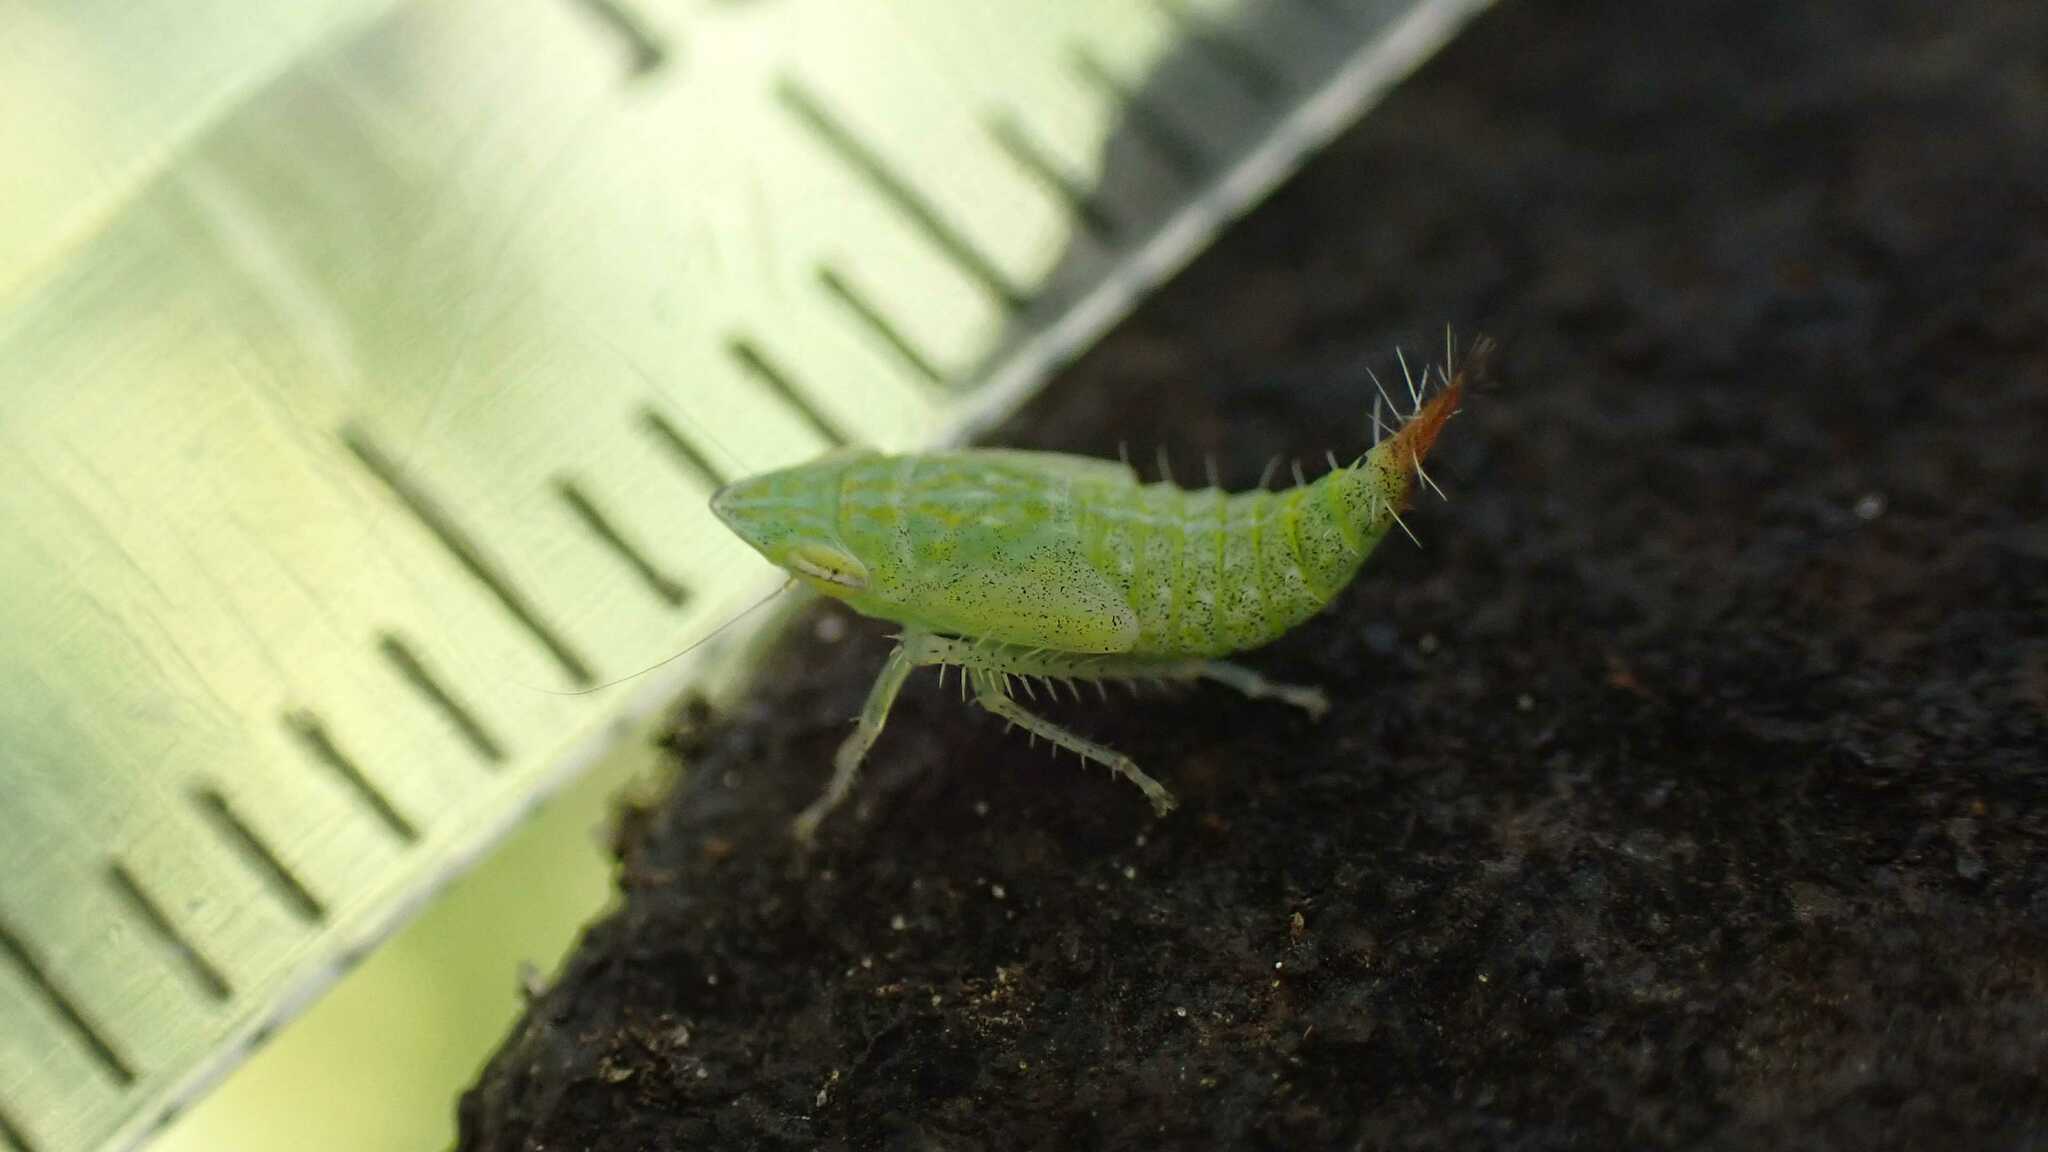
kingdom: Animalia
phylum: Arthropoda
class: Insecta
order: Hemiptera
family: Cicadellidae
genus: Fieberiella
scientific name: Fieberiella
